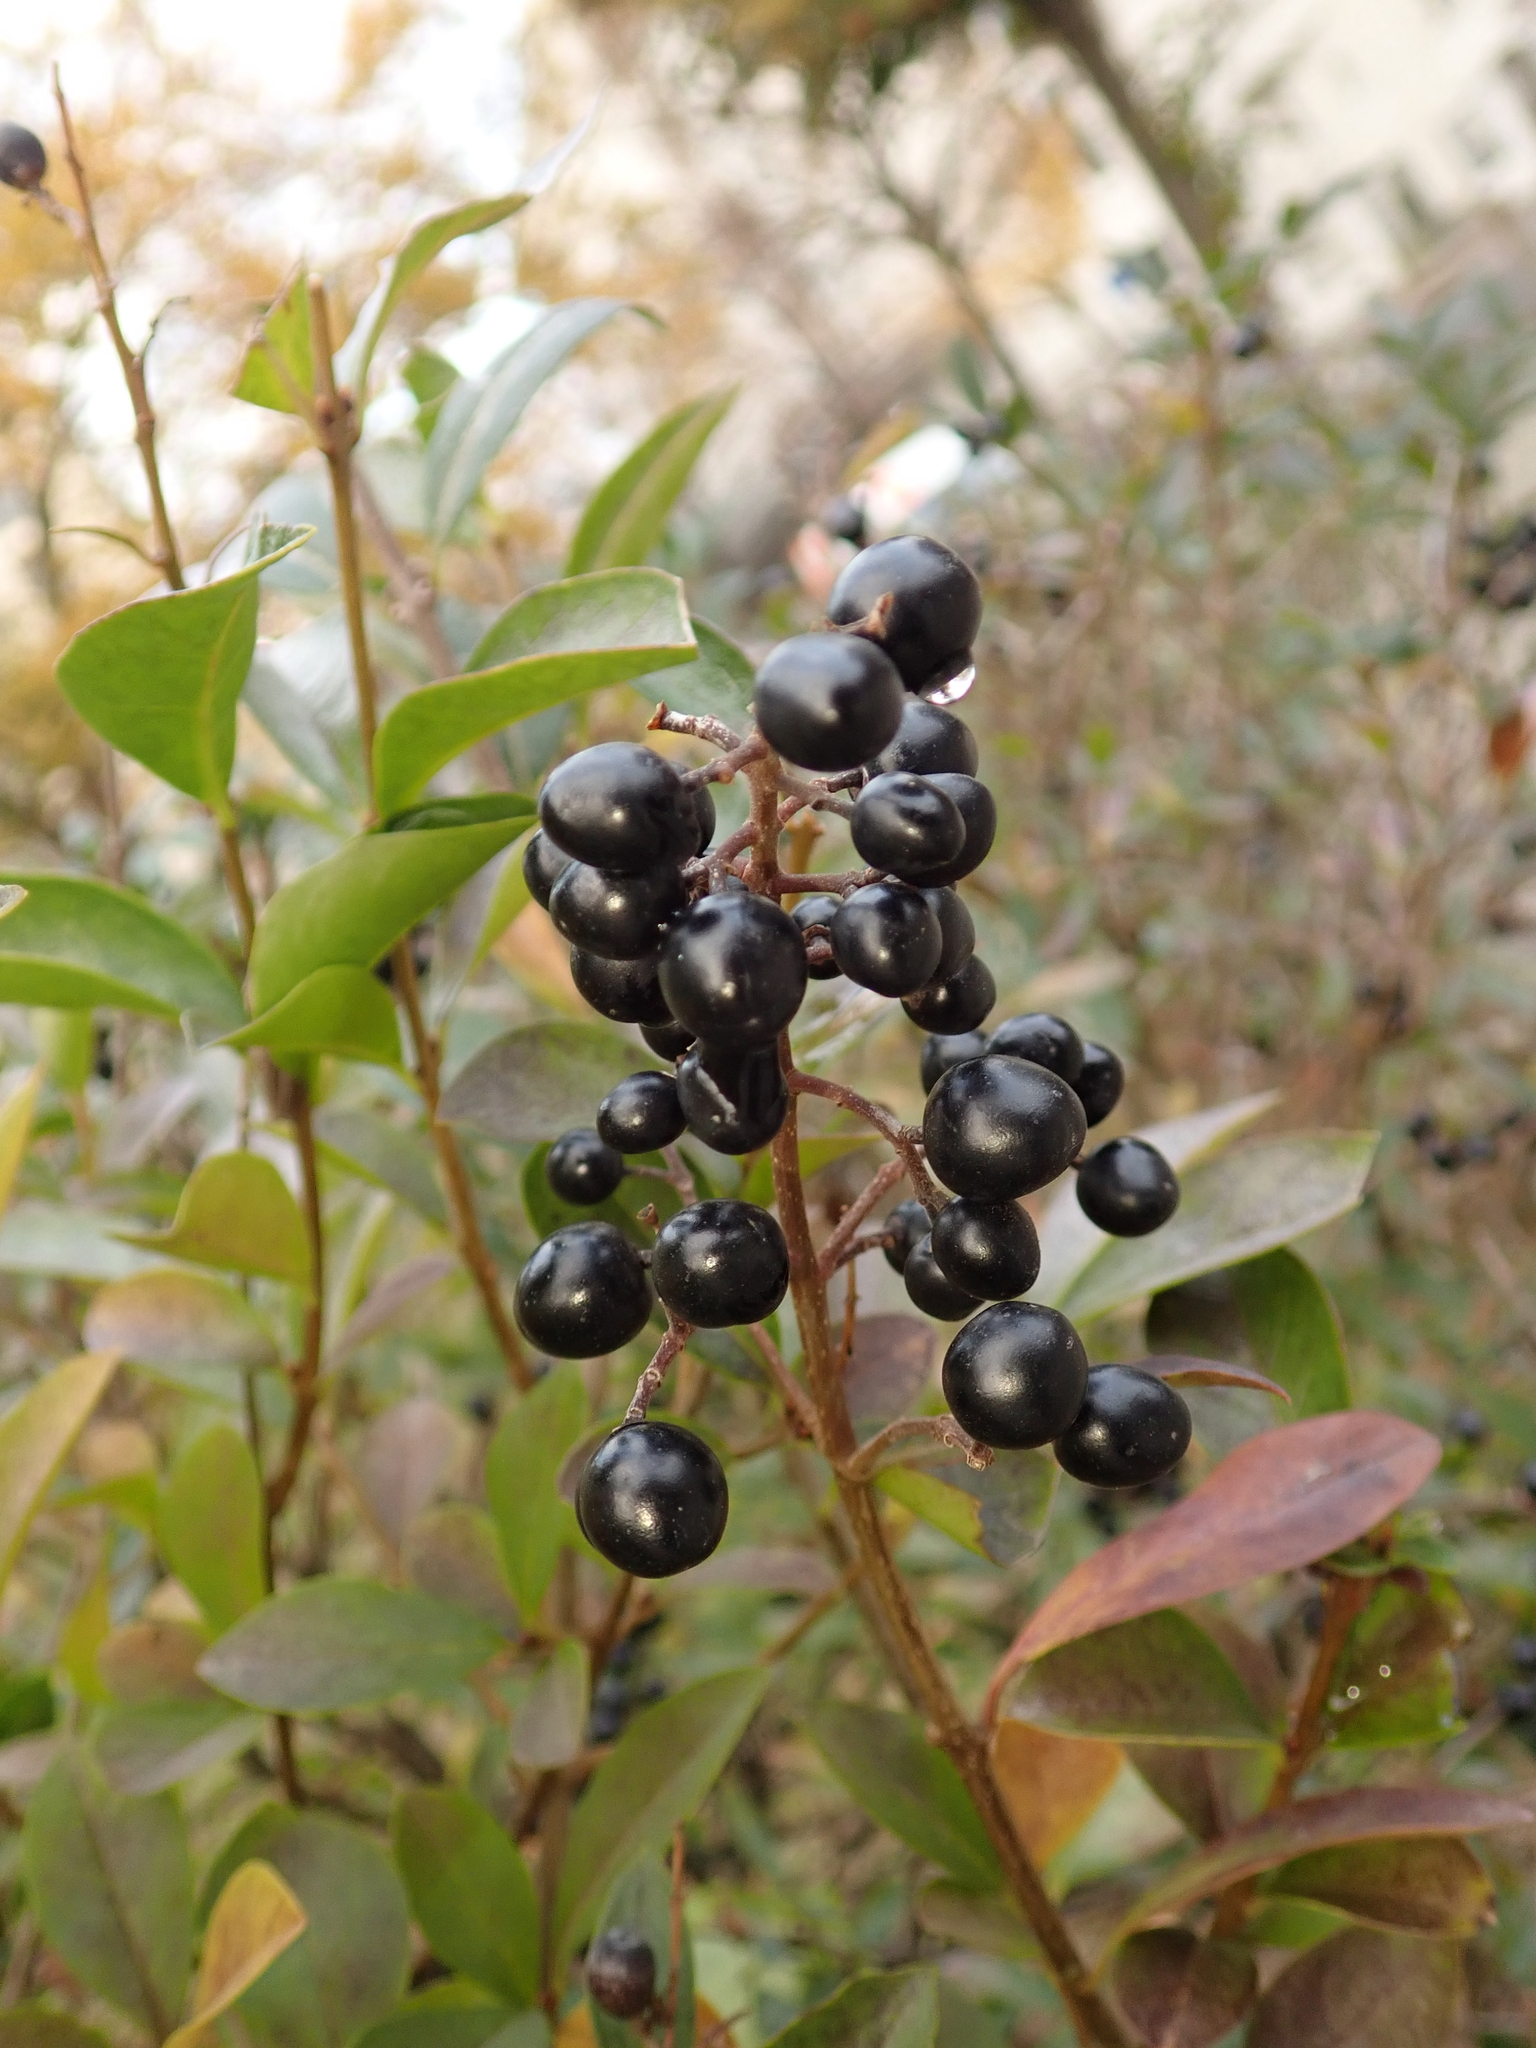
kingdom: Plantae
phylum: Tracheophyta
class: Magnoliopsida
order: Lamiales
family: Oleaceae
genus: Ligustrum
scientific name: Ligustrum vulgare
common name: Wild privet
